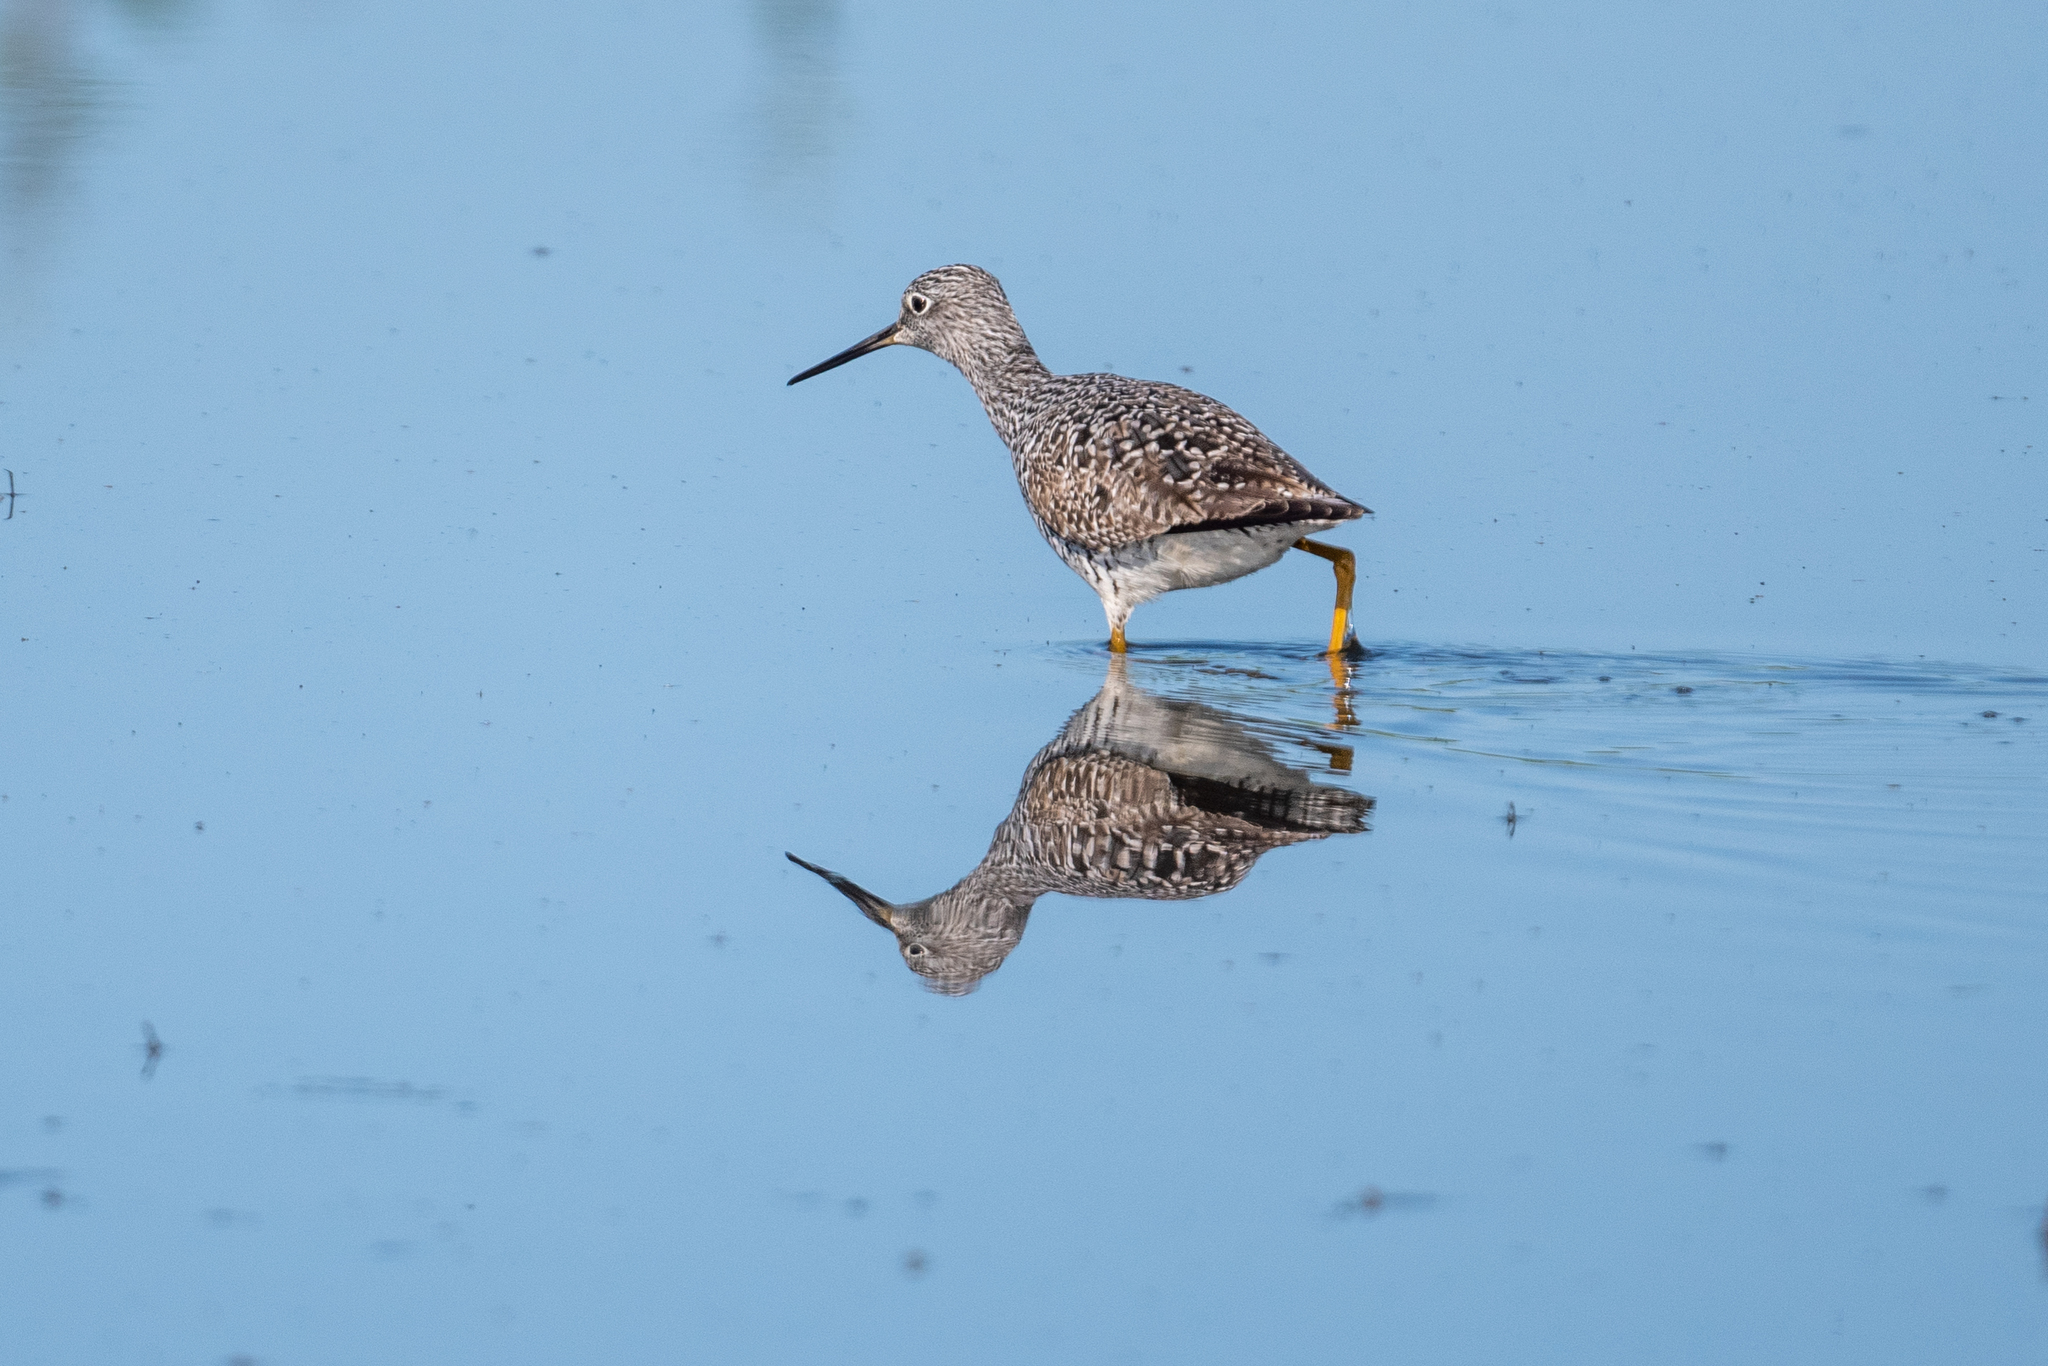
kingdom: Animalia
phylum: Chordata
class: Aves
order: Charadriiformes
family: Scolopacidae
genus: Tringa
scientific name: Tringa melanoleuca
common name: Greater yellowlegs
